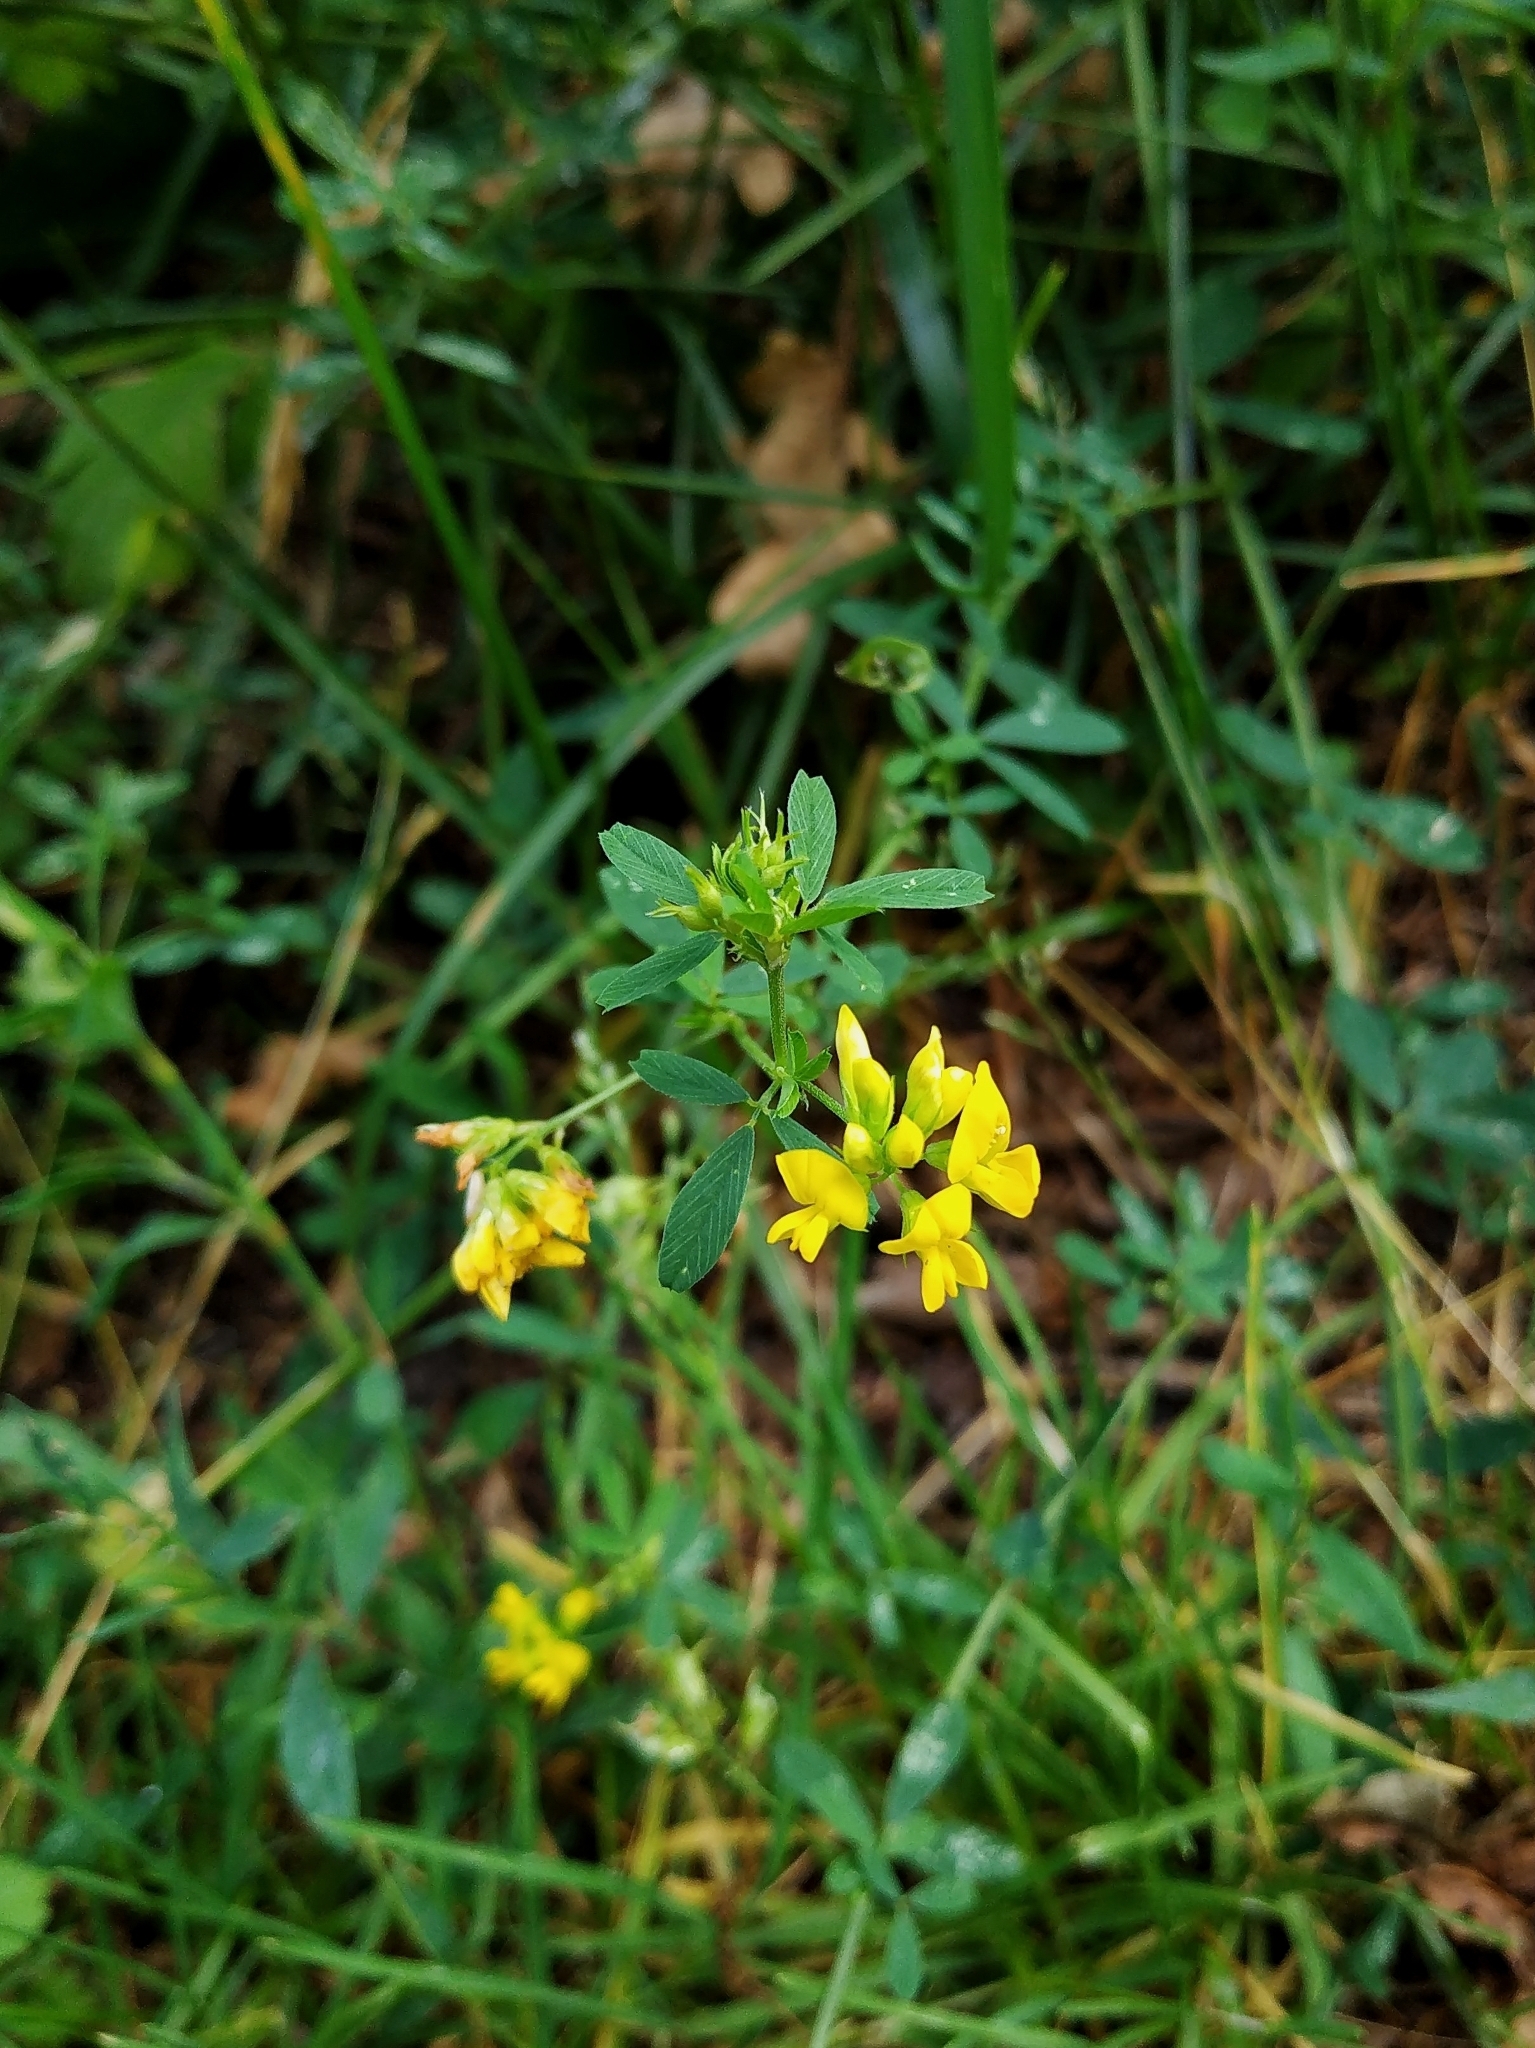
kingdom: Plantae
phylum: Tracheophyta
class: Magnoliopsida
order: Fabales
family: Fabaceae
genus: Medicago
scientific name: Medicago falcata
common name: Sickle medick
